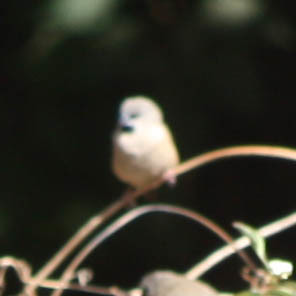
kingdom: Animalia
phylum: Chordata
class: Aves
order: Passeriformes
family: Estrildidae
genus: Lemuresthes
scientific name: Lemuresthes nana
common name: Madagascar mannikin
